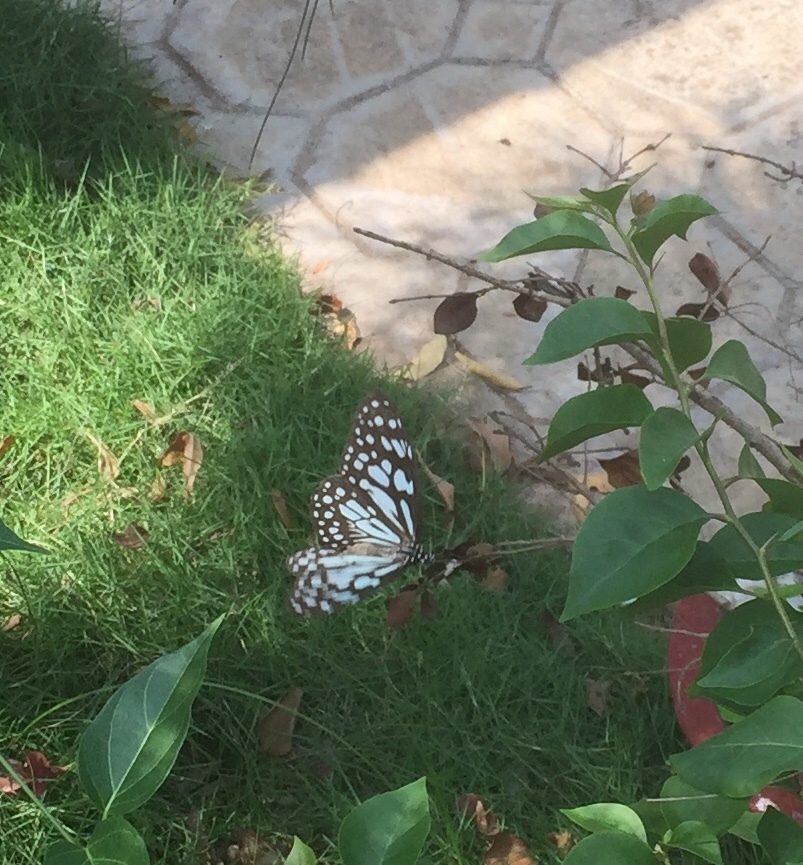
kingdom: Animalia
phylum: Arthropoda
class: Insecta
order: Lepidoptera
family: Nymphalidae
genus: Tirumala
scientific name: Tirumala limniace
